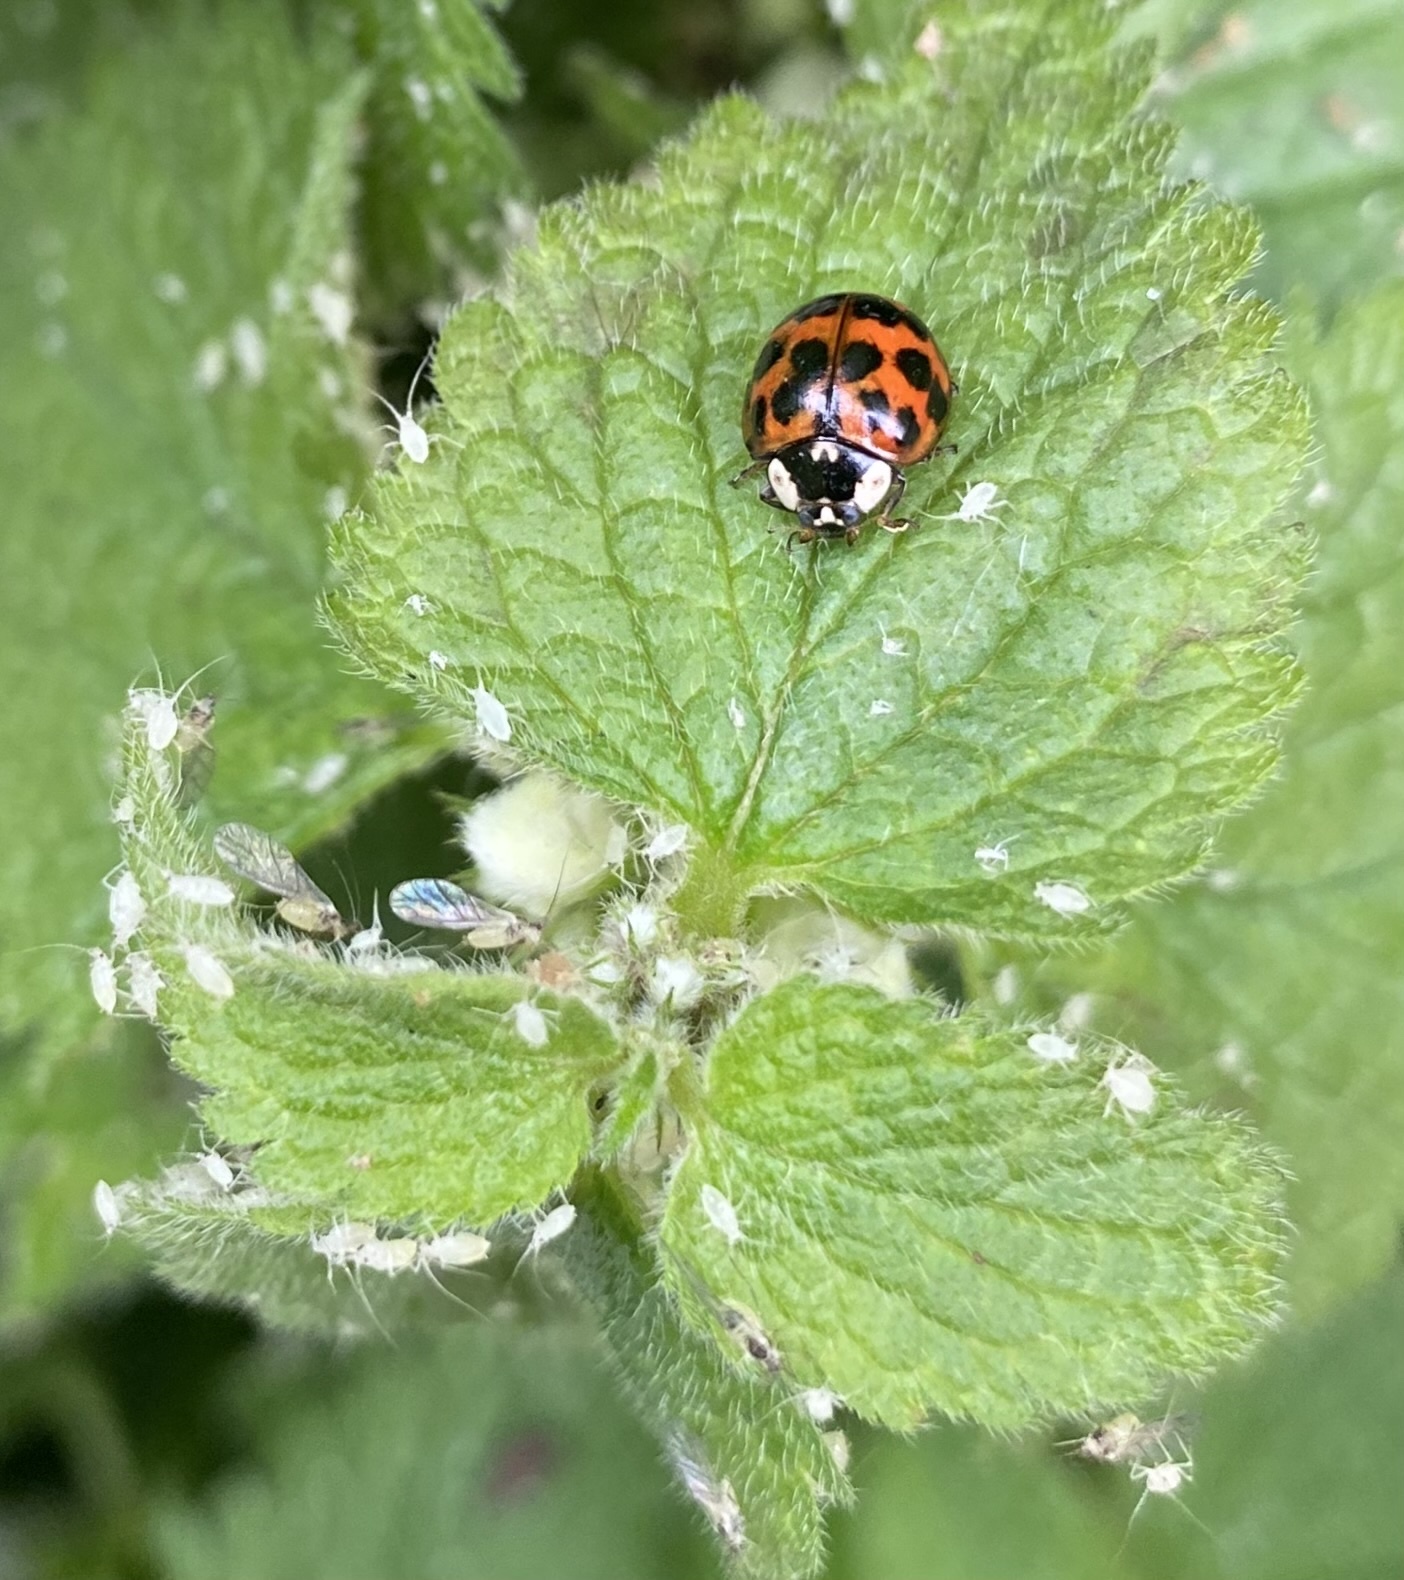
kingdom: Animalia
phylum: Arthropoda
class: Insecta
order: Coleoptera
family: Coccinellidae
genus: Harmonia
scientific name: Harmonia axyridis
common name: Harlequin ladybird
